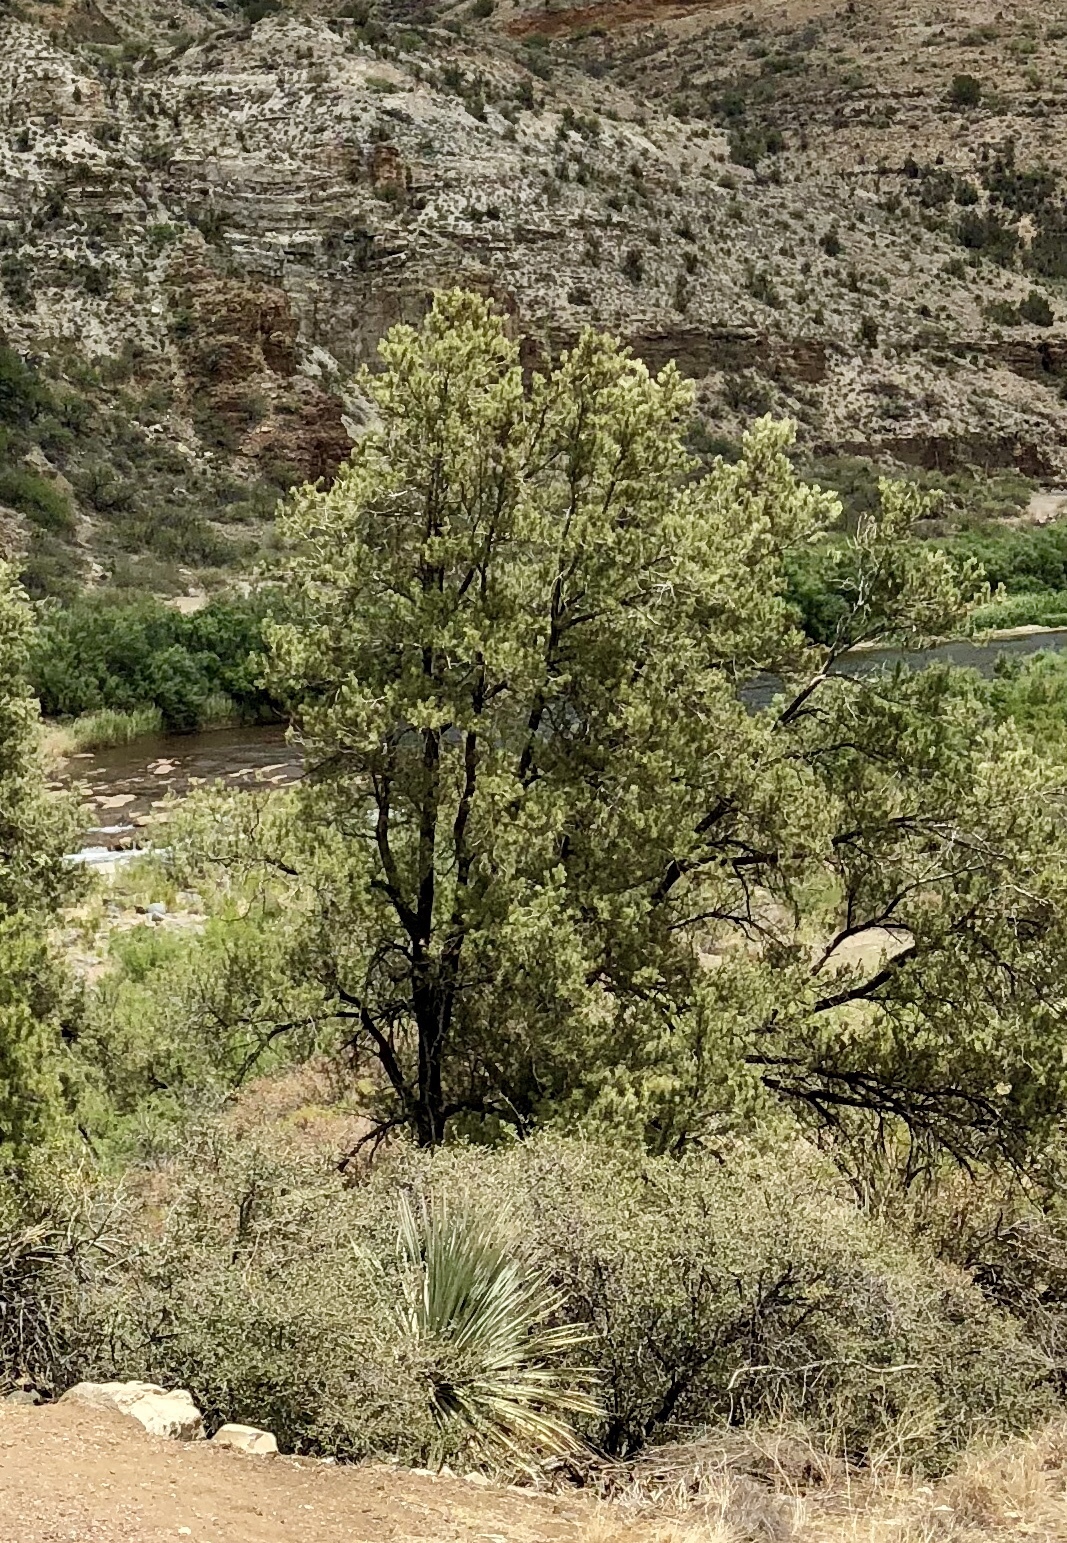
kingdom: Plantae
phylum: Tracheophyta
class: Pinopsida
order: Pinales
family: Pinaceae
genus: Pinus
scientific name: Pinus monophylla
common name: One-leaved nut pine
